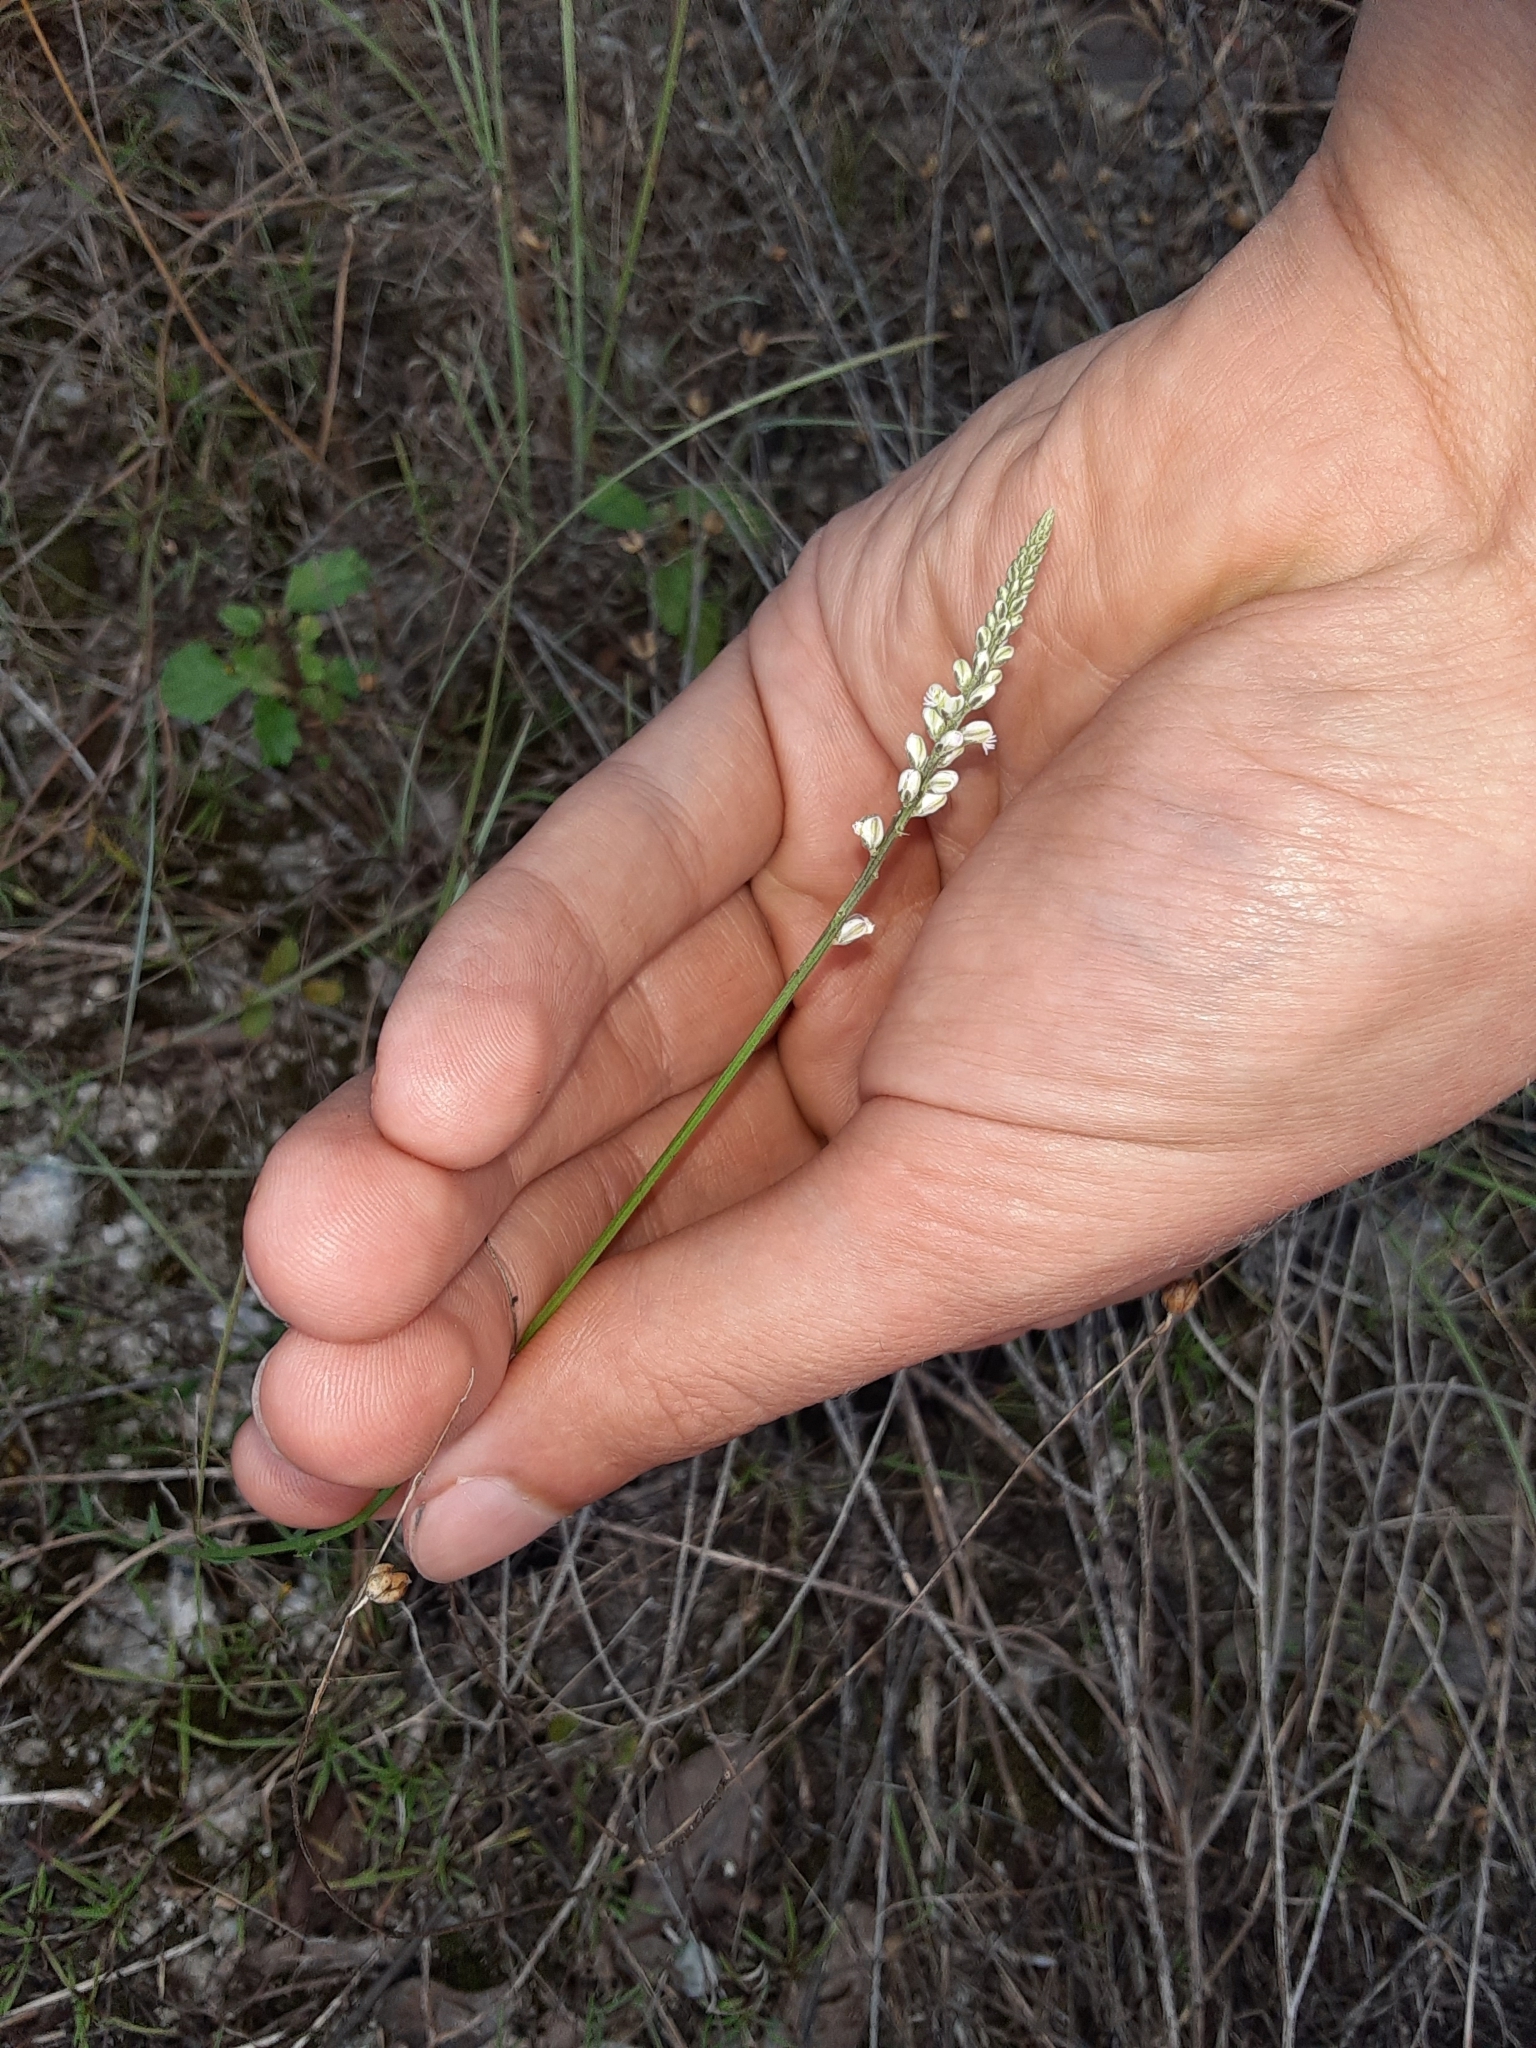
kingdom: Plantae
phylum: Tracheophyta
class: Magnoliopsida
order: Fabales
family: Polygalaceae
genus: Polygala
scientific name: Polygala boykinii
